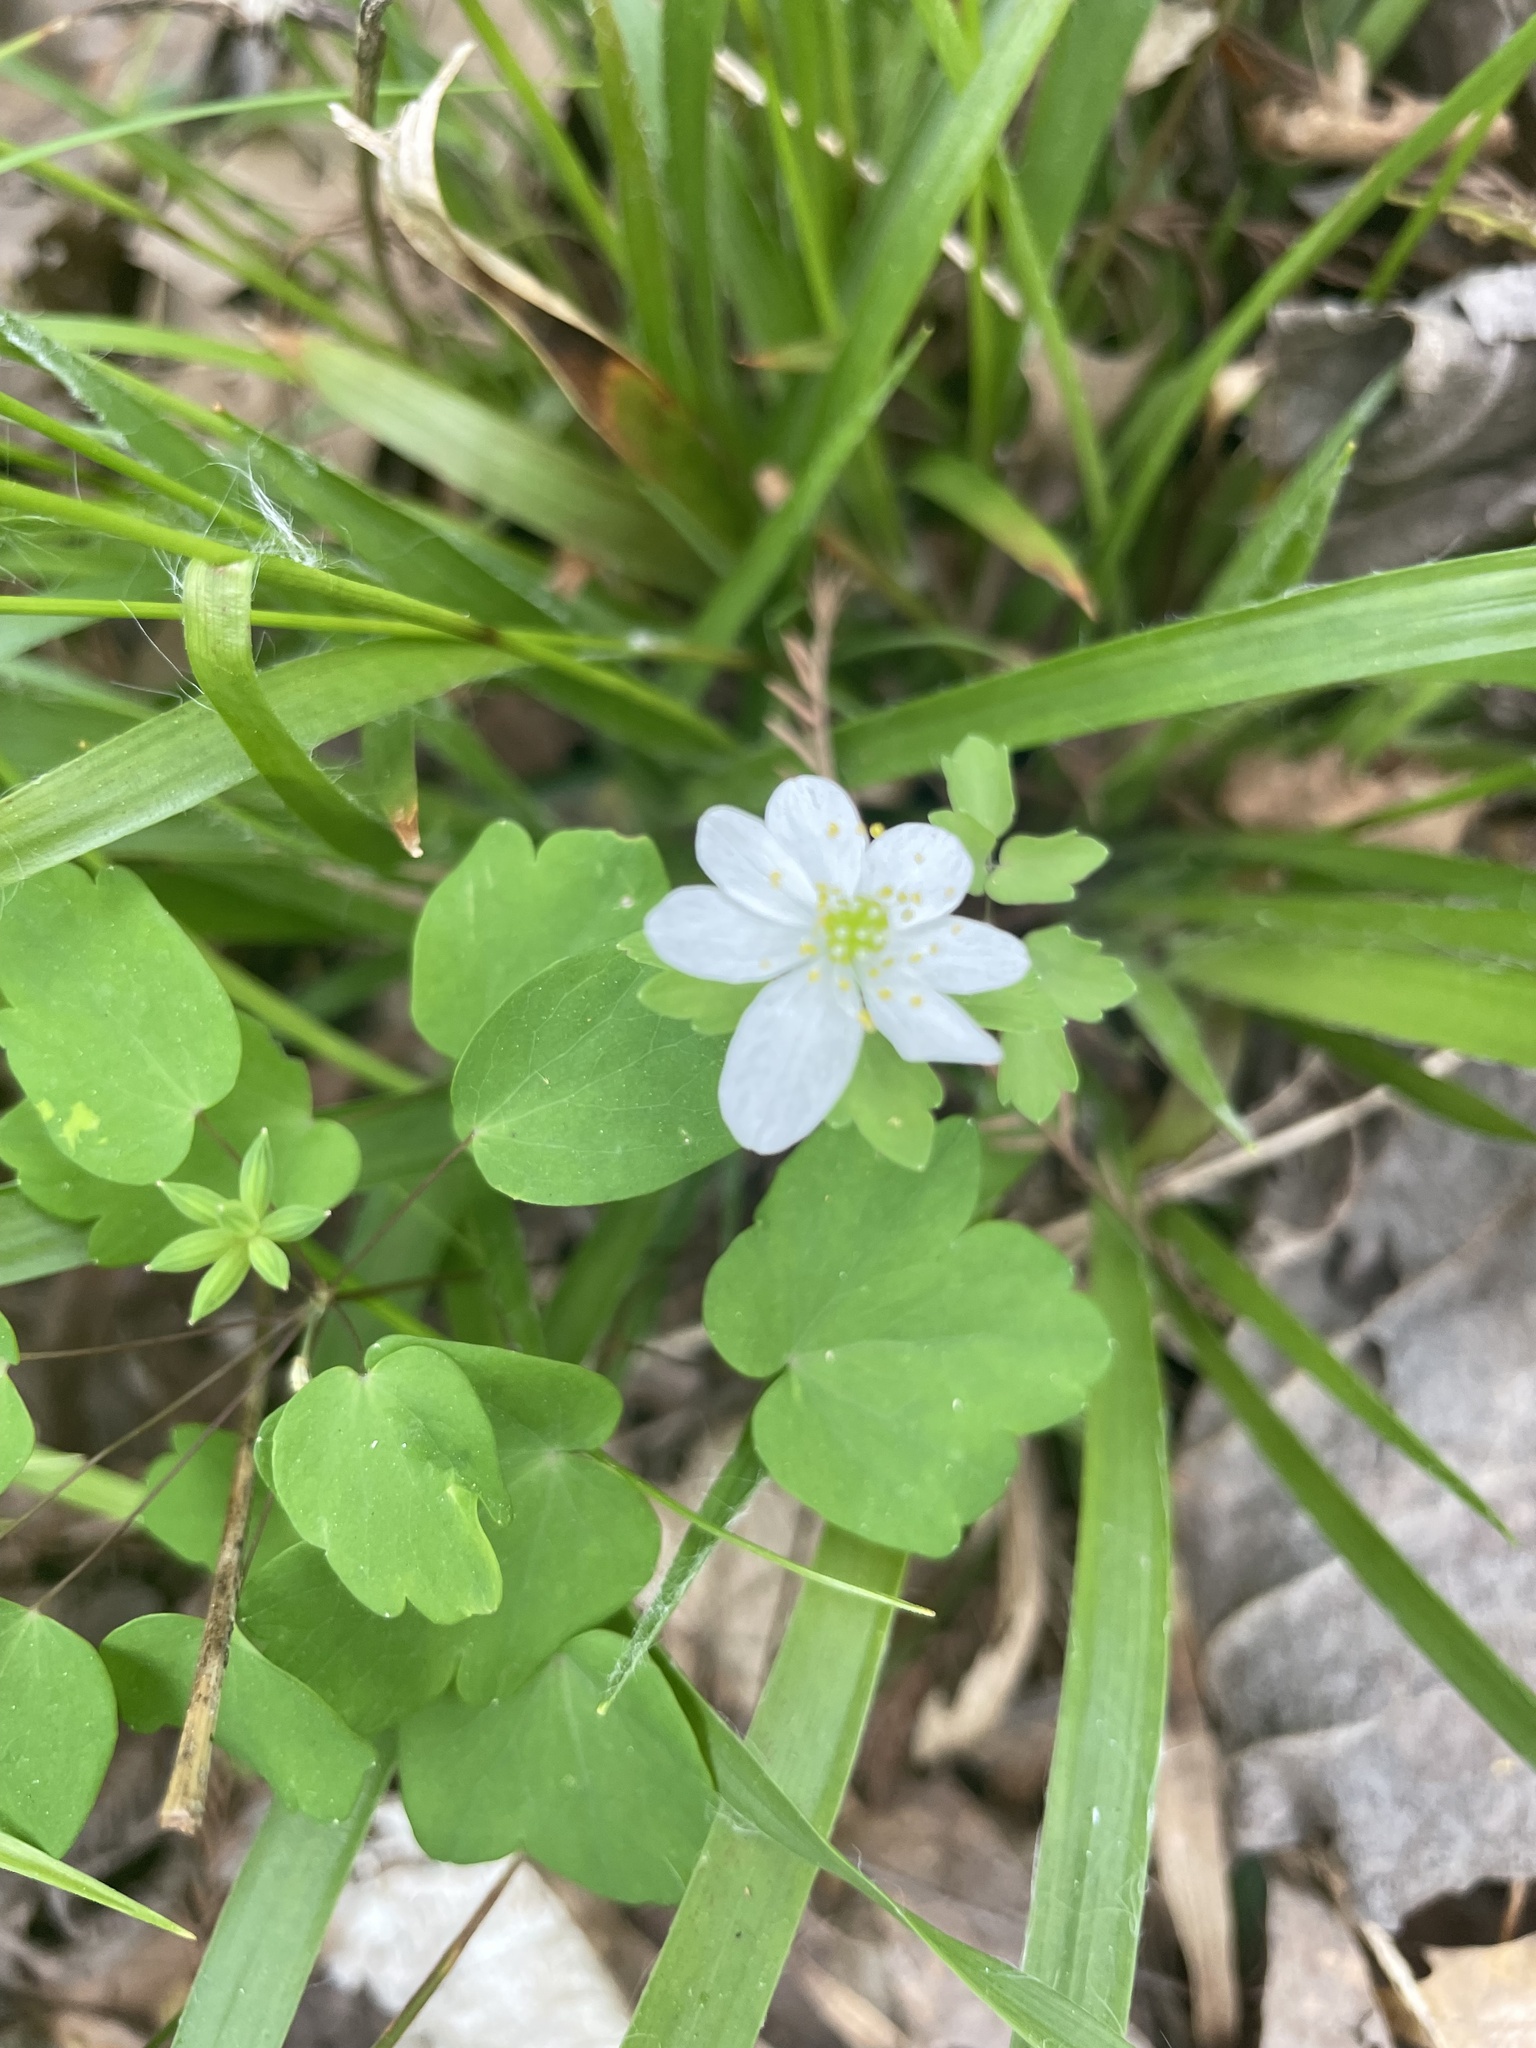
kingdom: Plantae
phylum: Tracheophyta
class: Magnoliopsida
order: Ranunculales
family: Ranunculaceae
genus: Thalictrum
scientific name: Thalictrum thalictroides
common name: Rue-anemone
